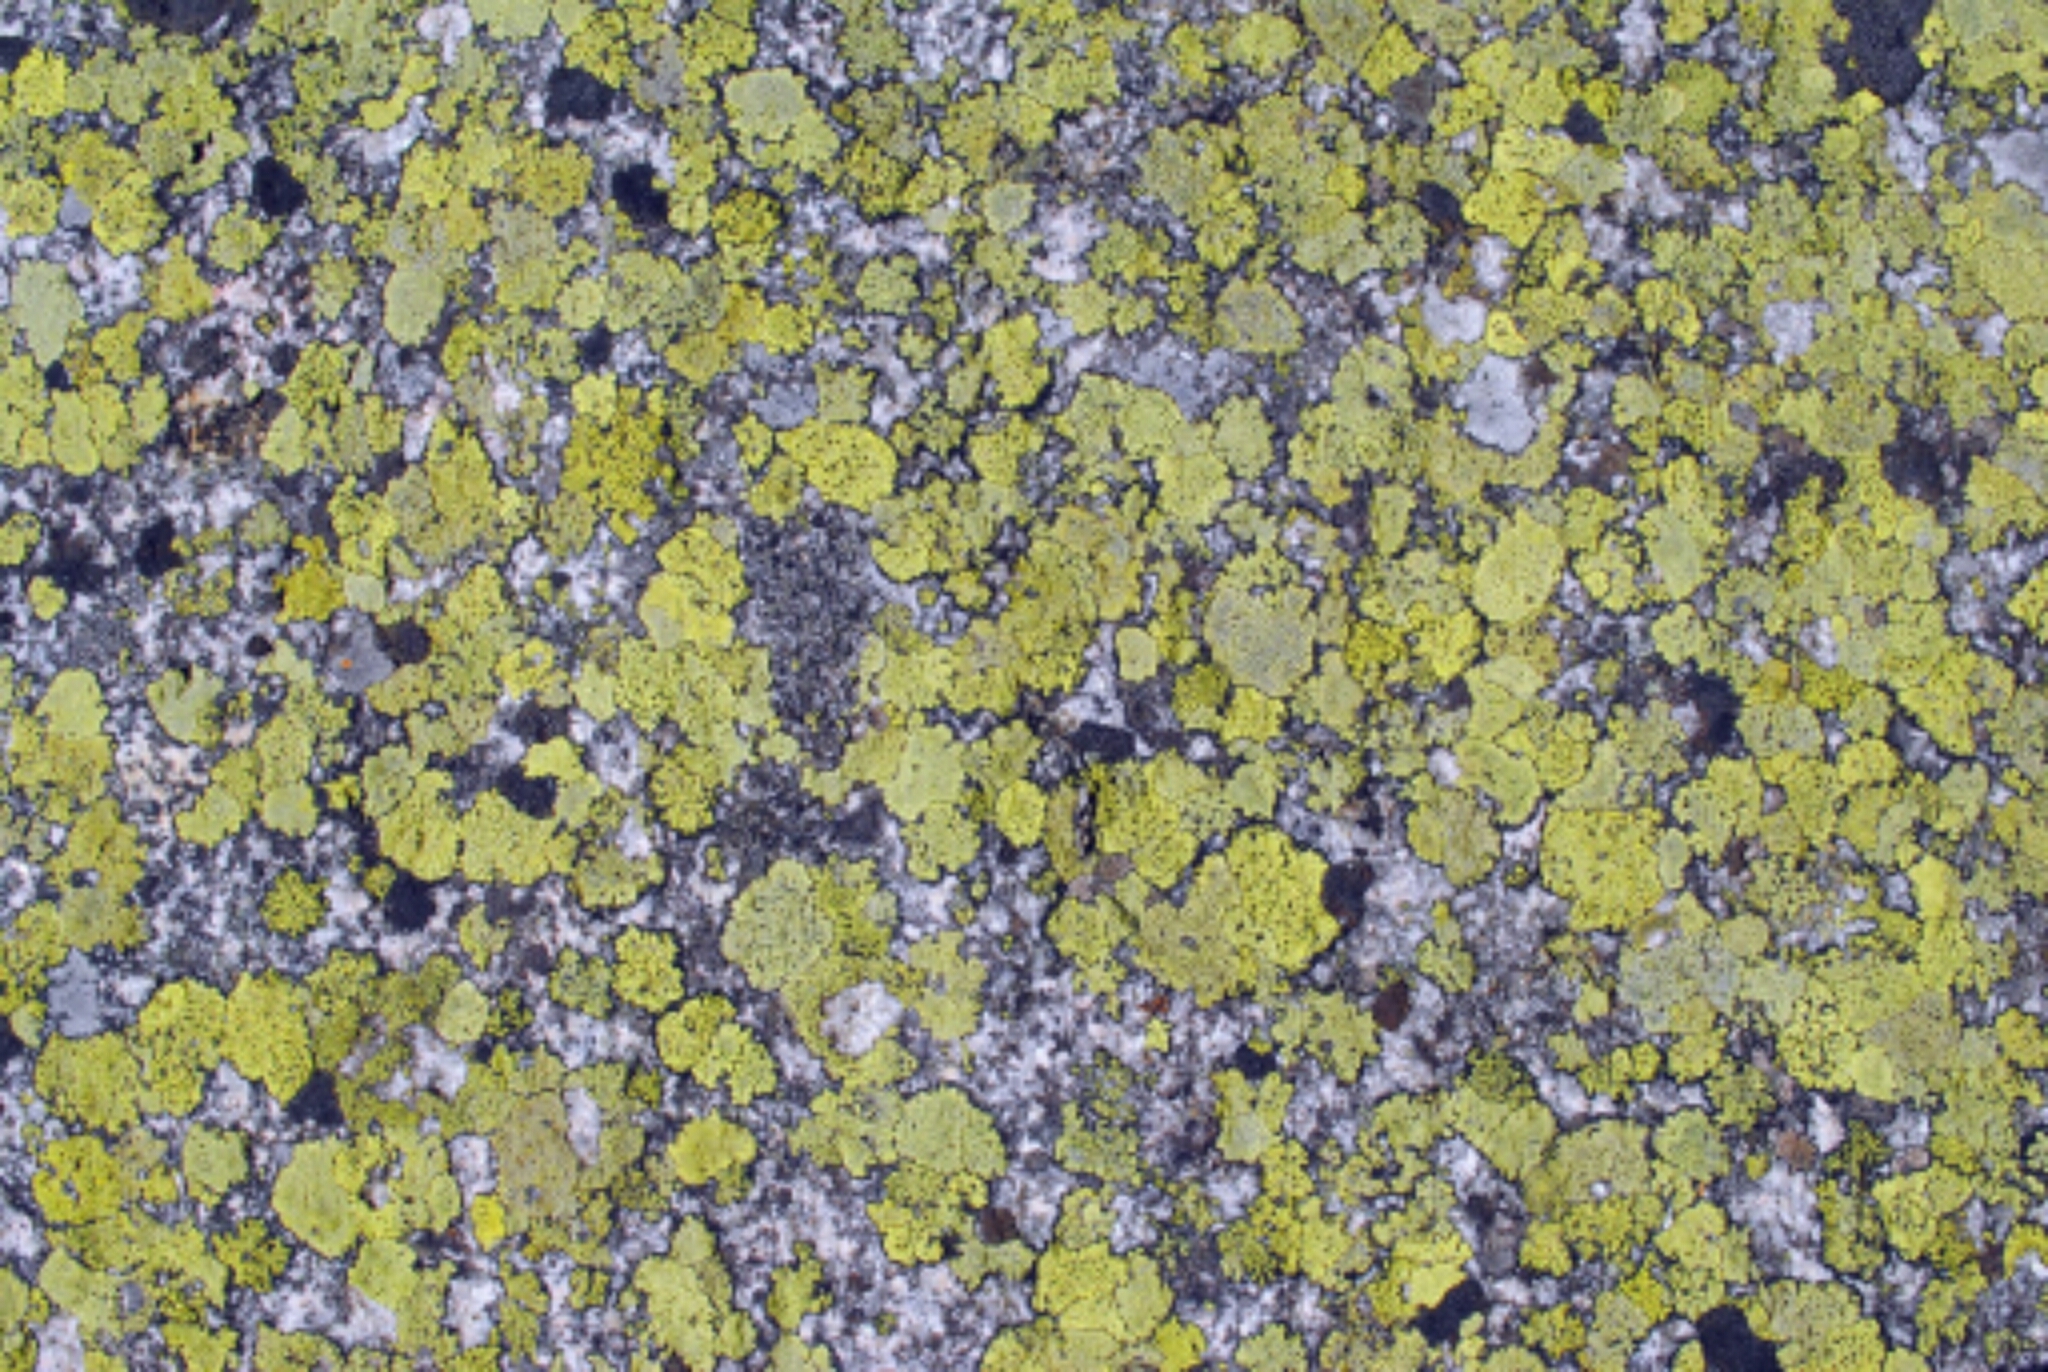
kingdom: Fungi
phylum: Ascomycota
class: Lecanoromycetes
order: Rhizocarpales
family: Rhizocarpaceae
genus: Rhizocarpon
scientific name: Rhizocarpon geographicum
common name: Yellow map lichen
